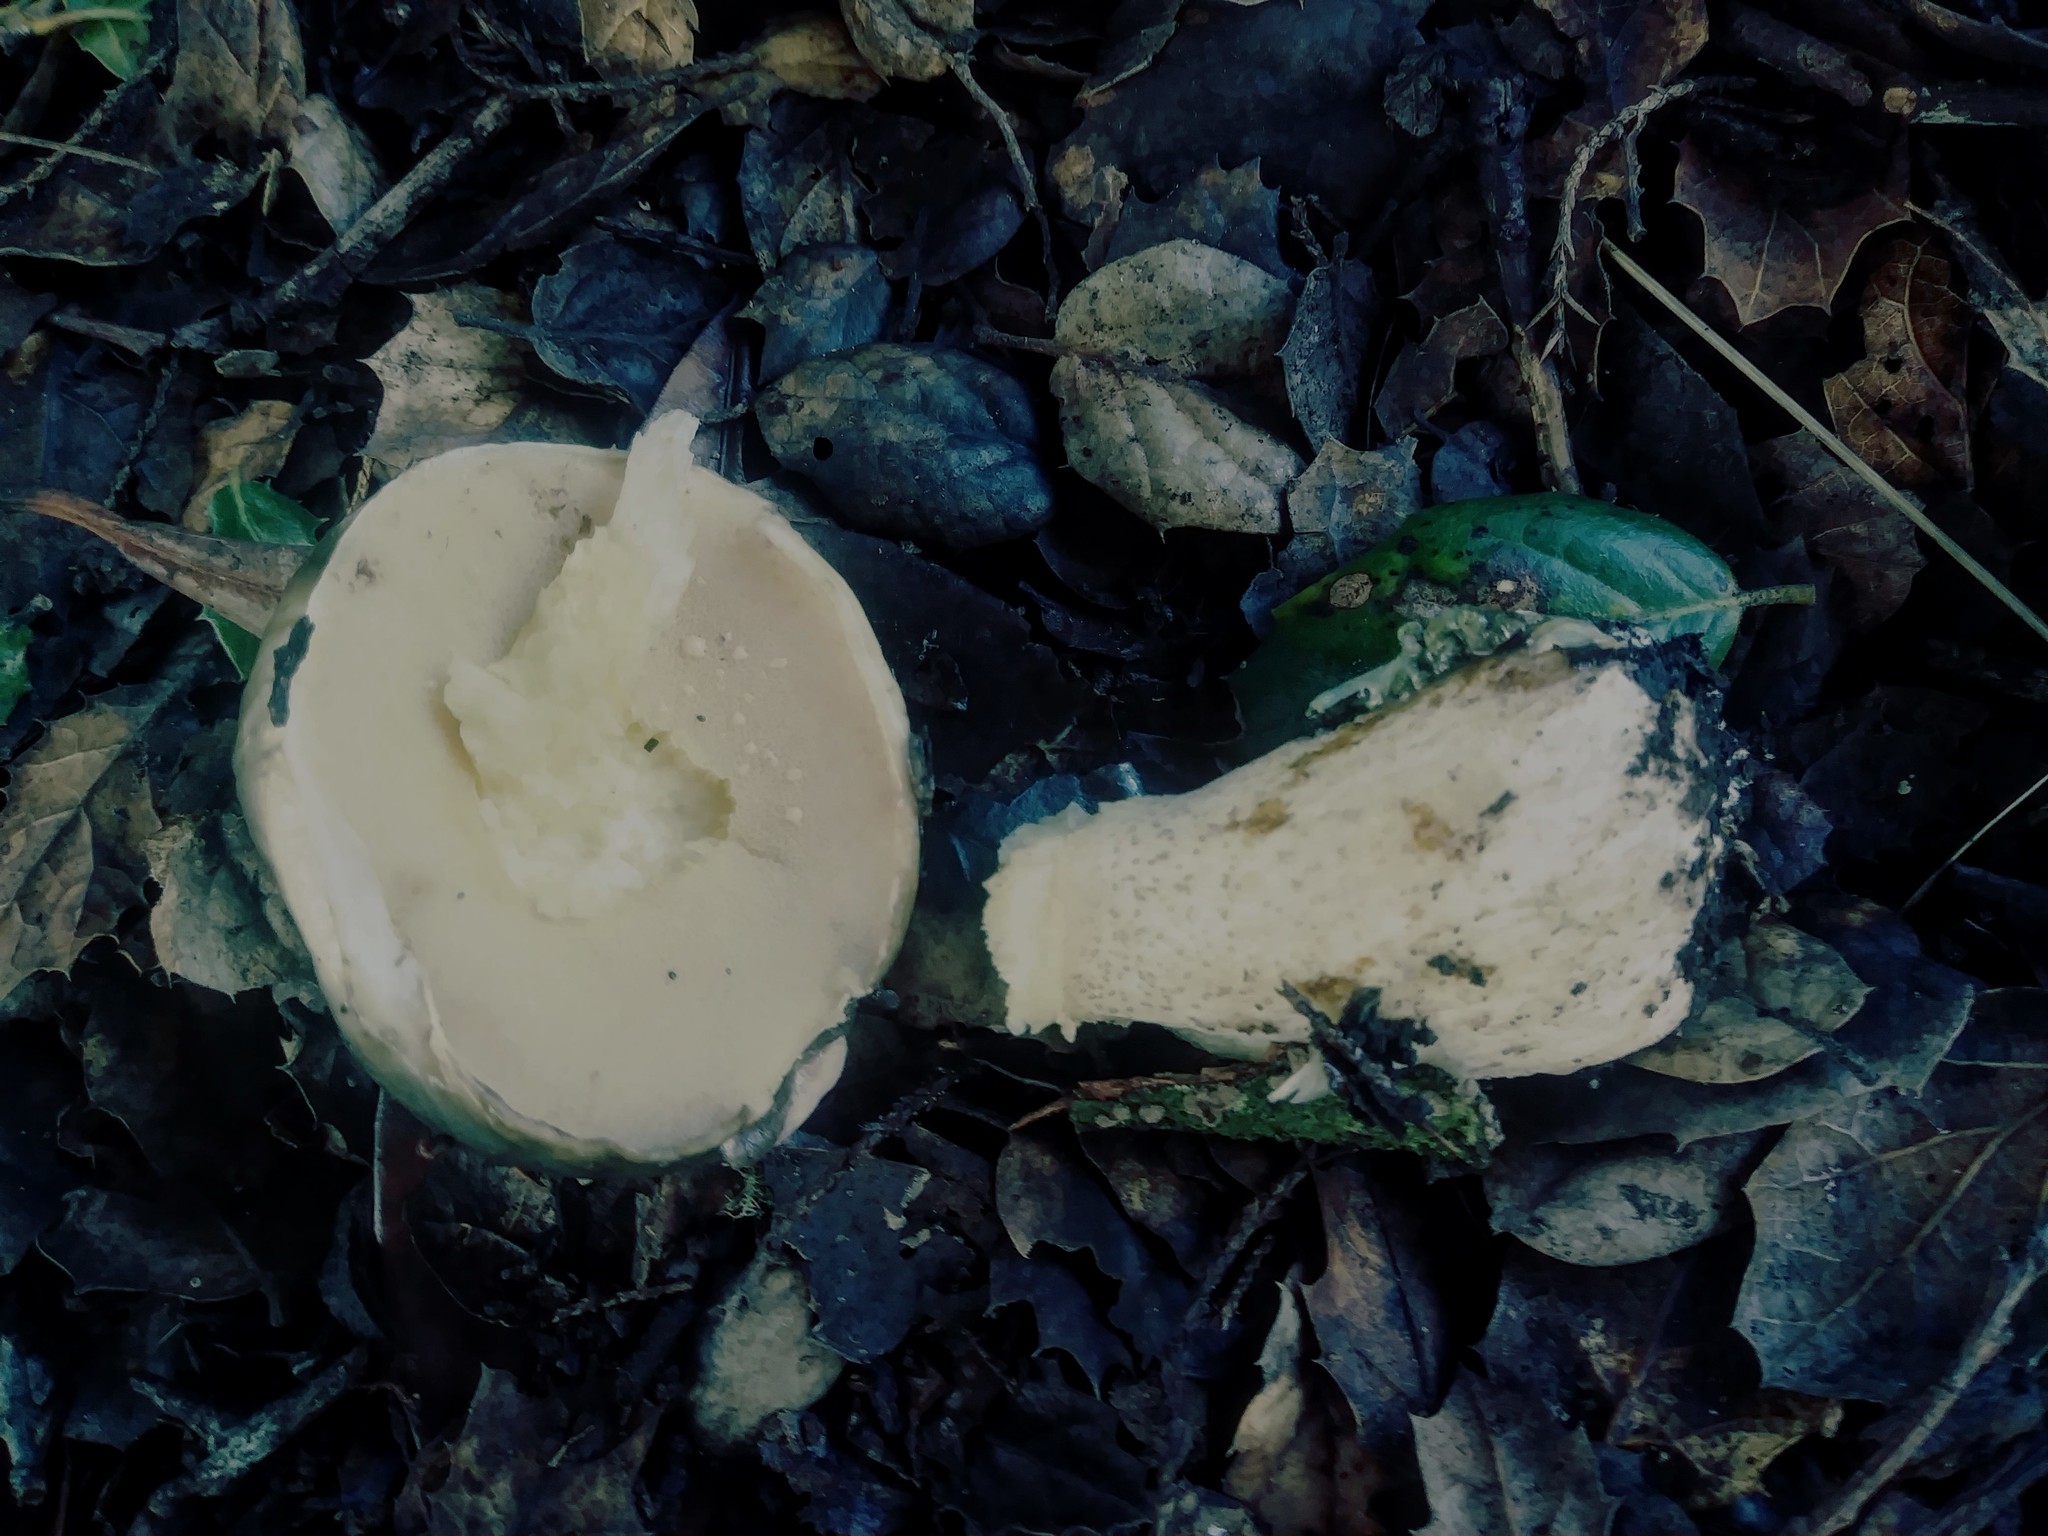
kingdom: Fungi
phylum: Basidiomycota
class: Agaricomycetes
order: Boletales
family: Suillaceae
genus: Suillus
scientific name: Suillus pungens
